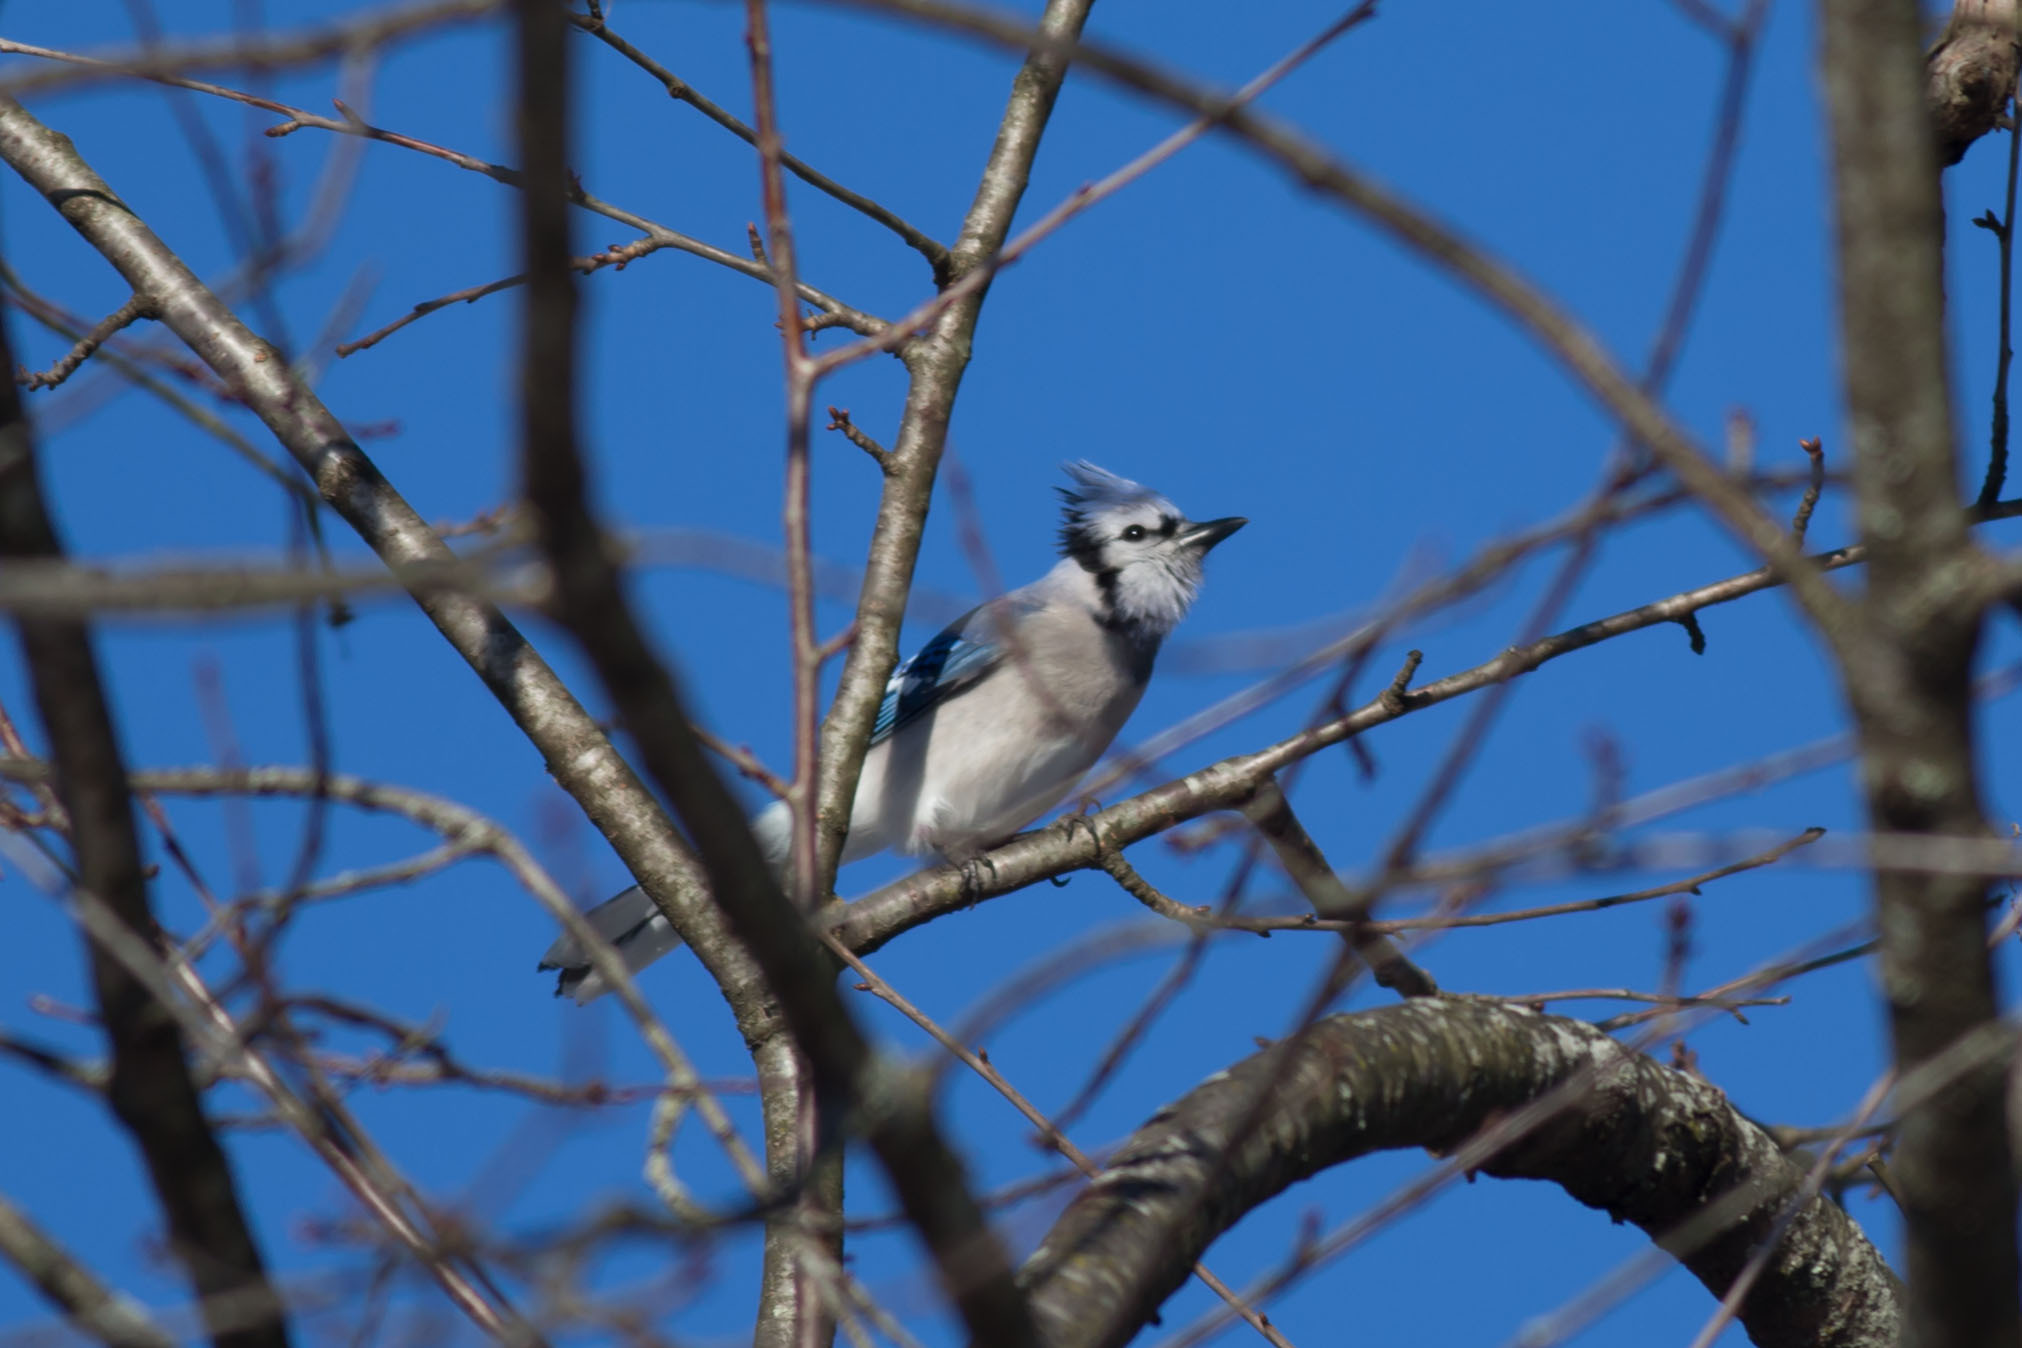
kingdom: Animalia
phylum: Chordata
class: Aves
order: Passeriformes
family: Corvidae
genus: Cyanocitta
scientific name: Cyanocitta cristata
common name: Blue jay
